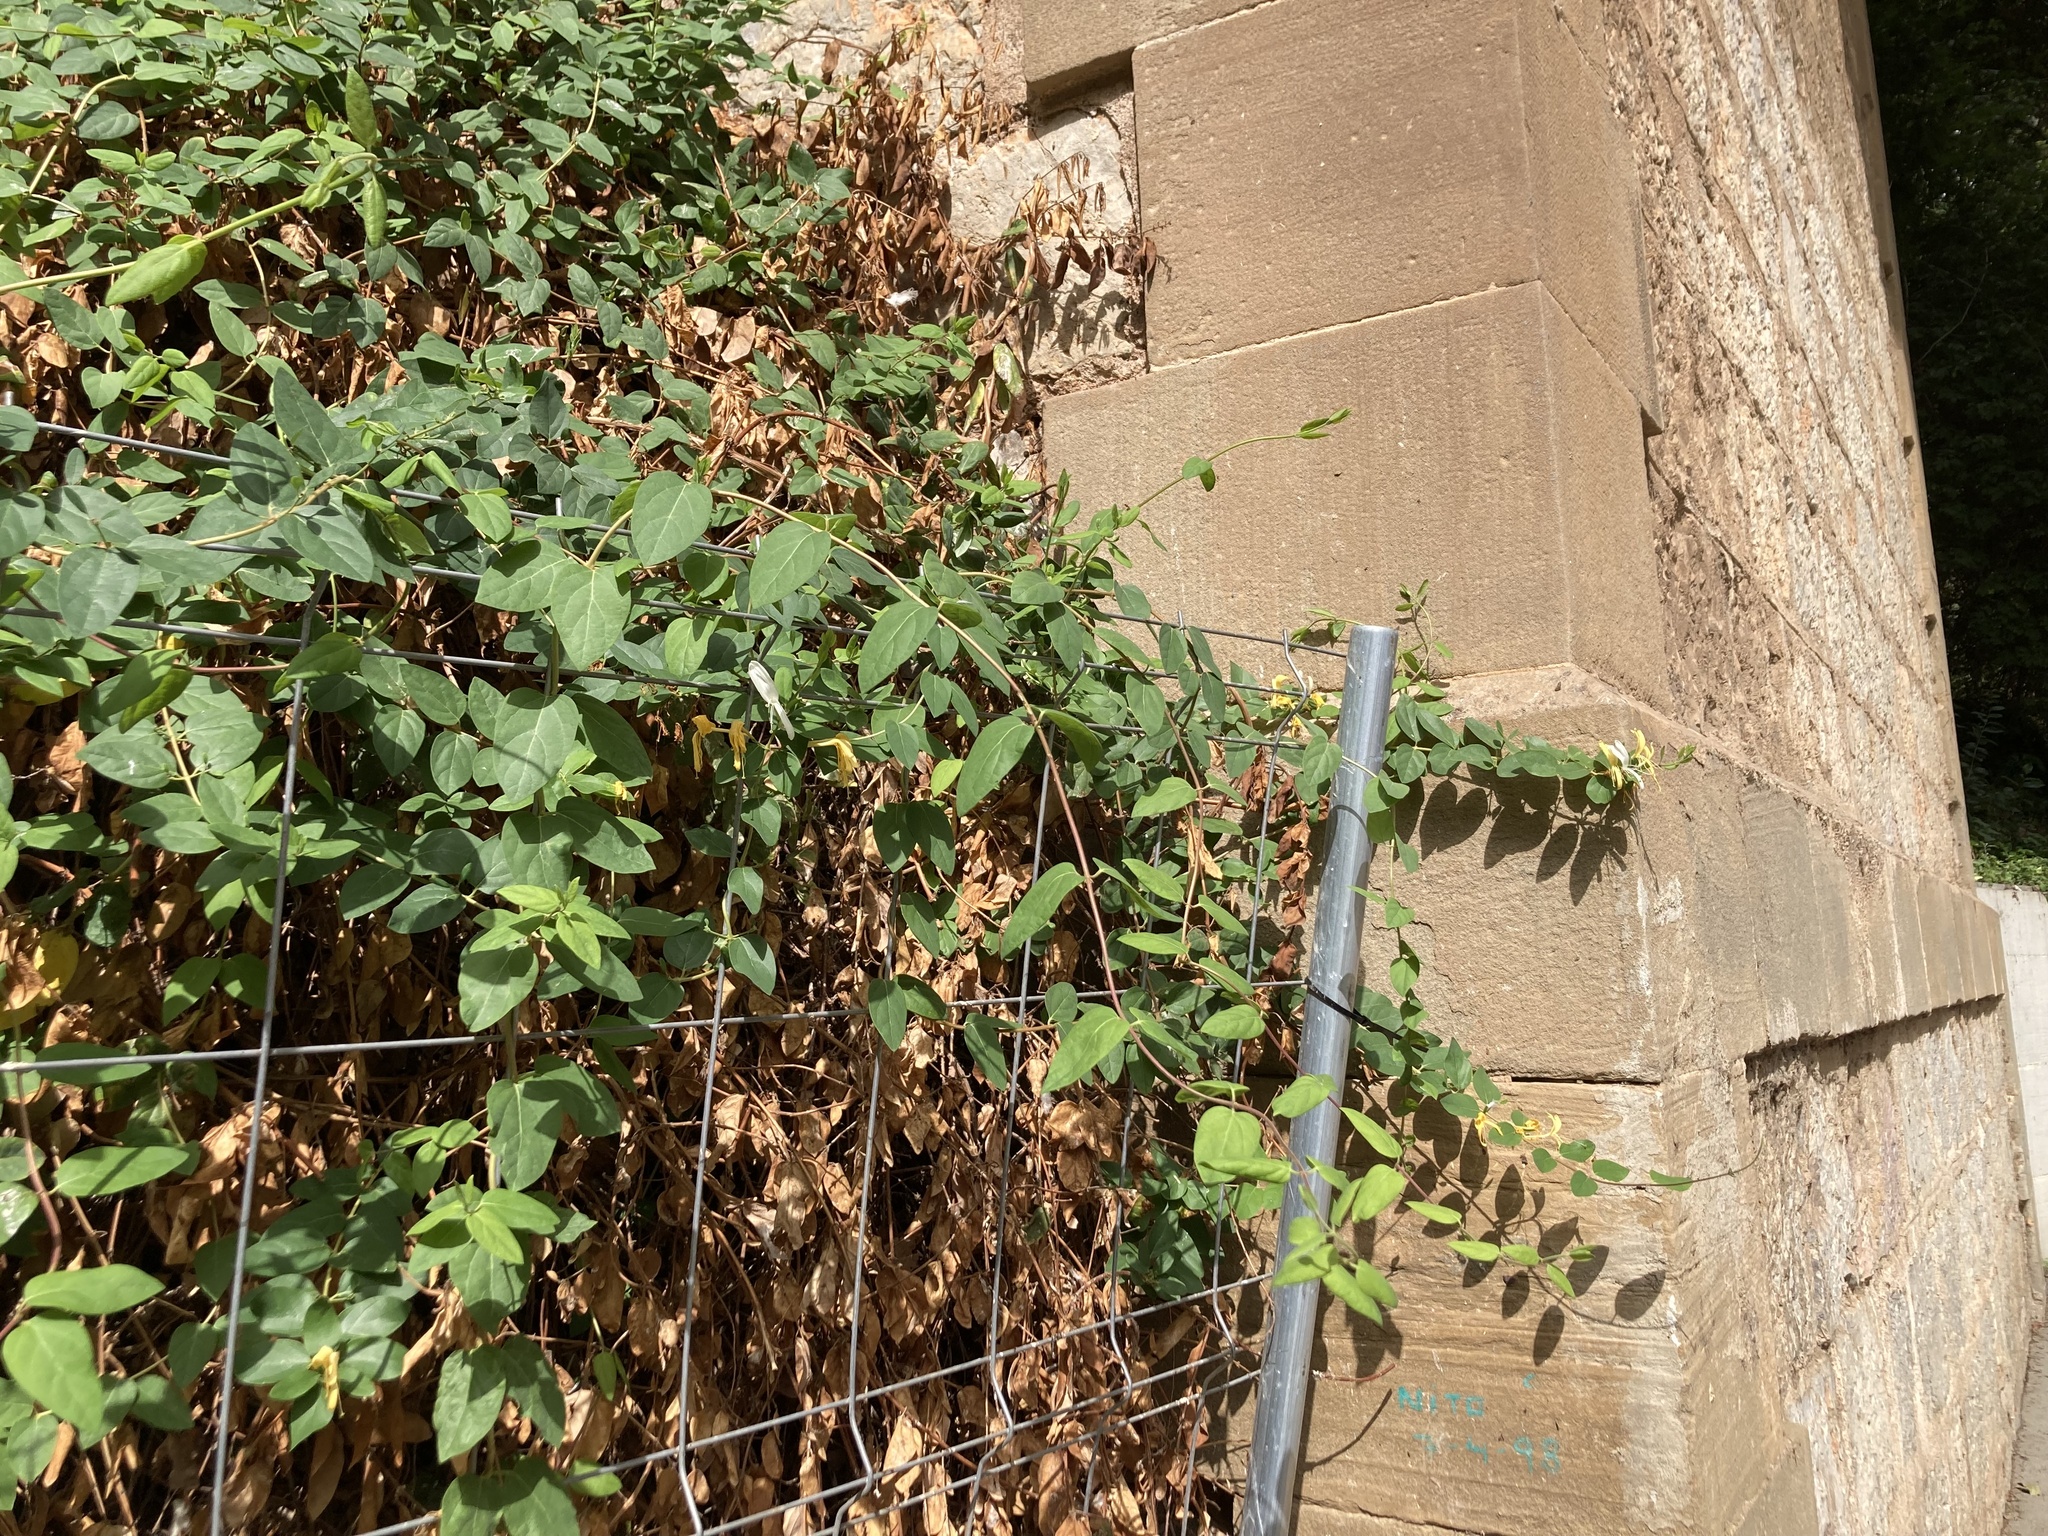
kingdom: Plantae
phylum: Tracheophyta
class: Magnoliopsida
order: Dipsacales
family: Caprifoliaceae
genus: Lonicera
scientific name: Lonicera japonica
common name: Japanese honeysuckle
